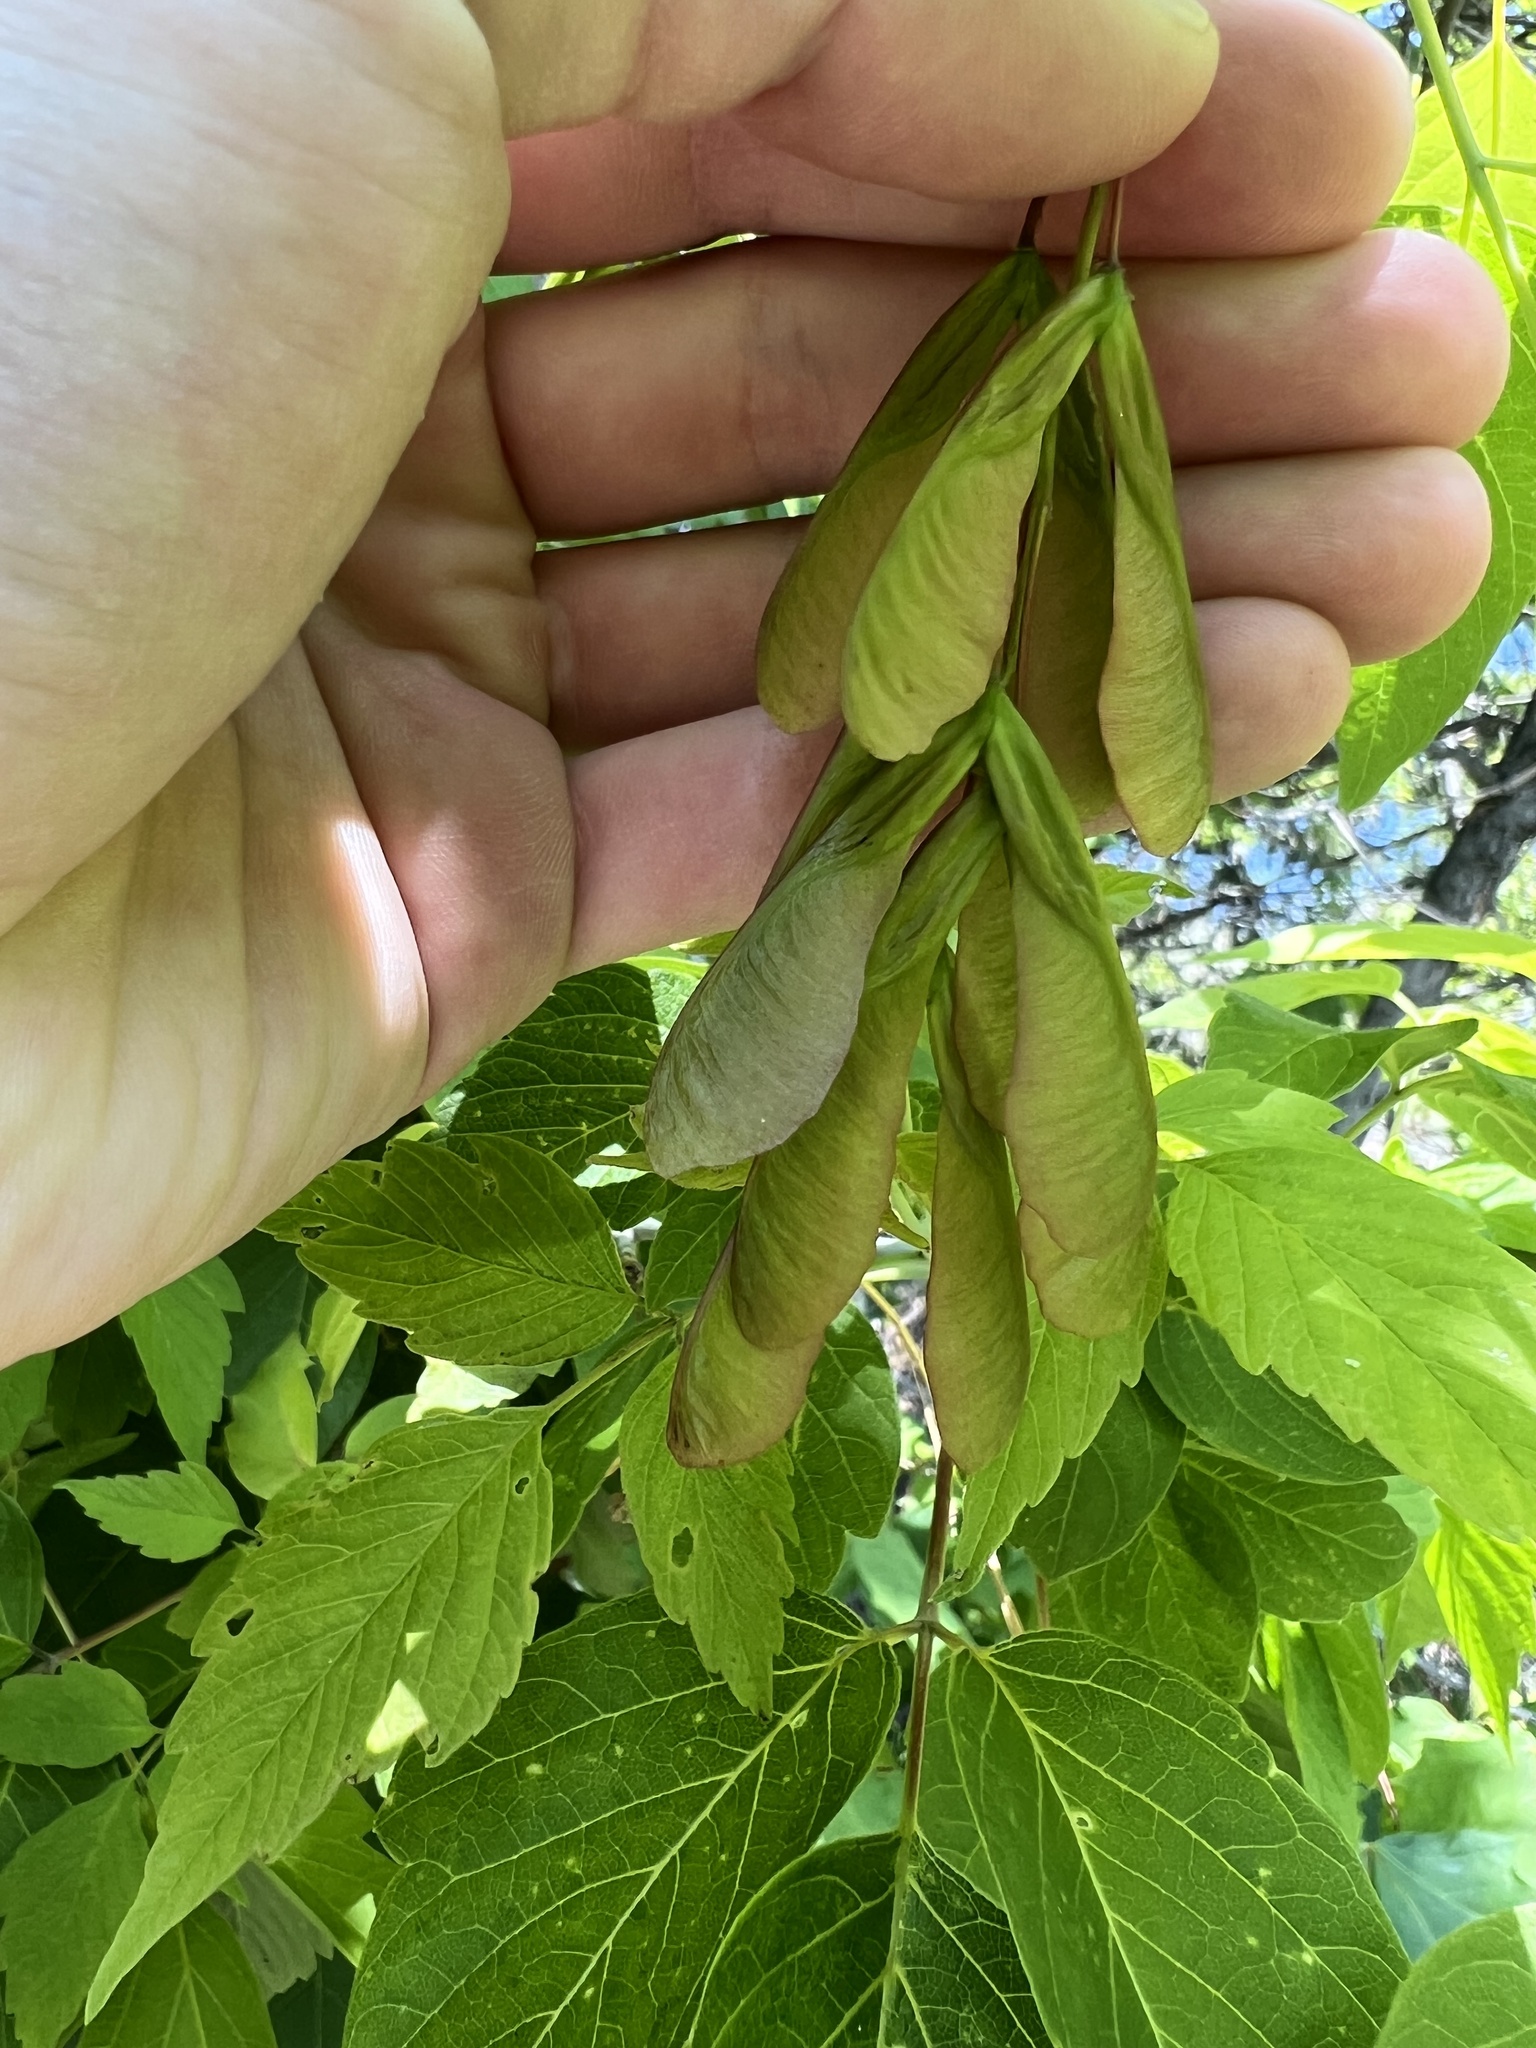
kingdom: Plantae
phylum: Tracheophyta
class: Magnoliopsida
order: Sapindales
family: Sapindaceae
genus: Acer
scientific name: Acer negundo
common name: Ashleaf maple
